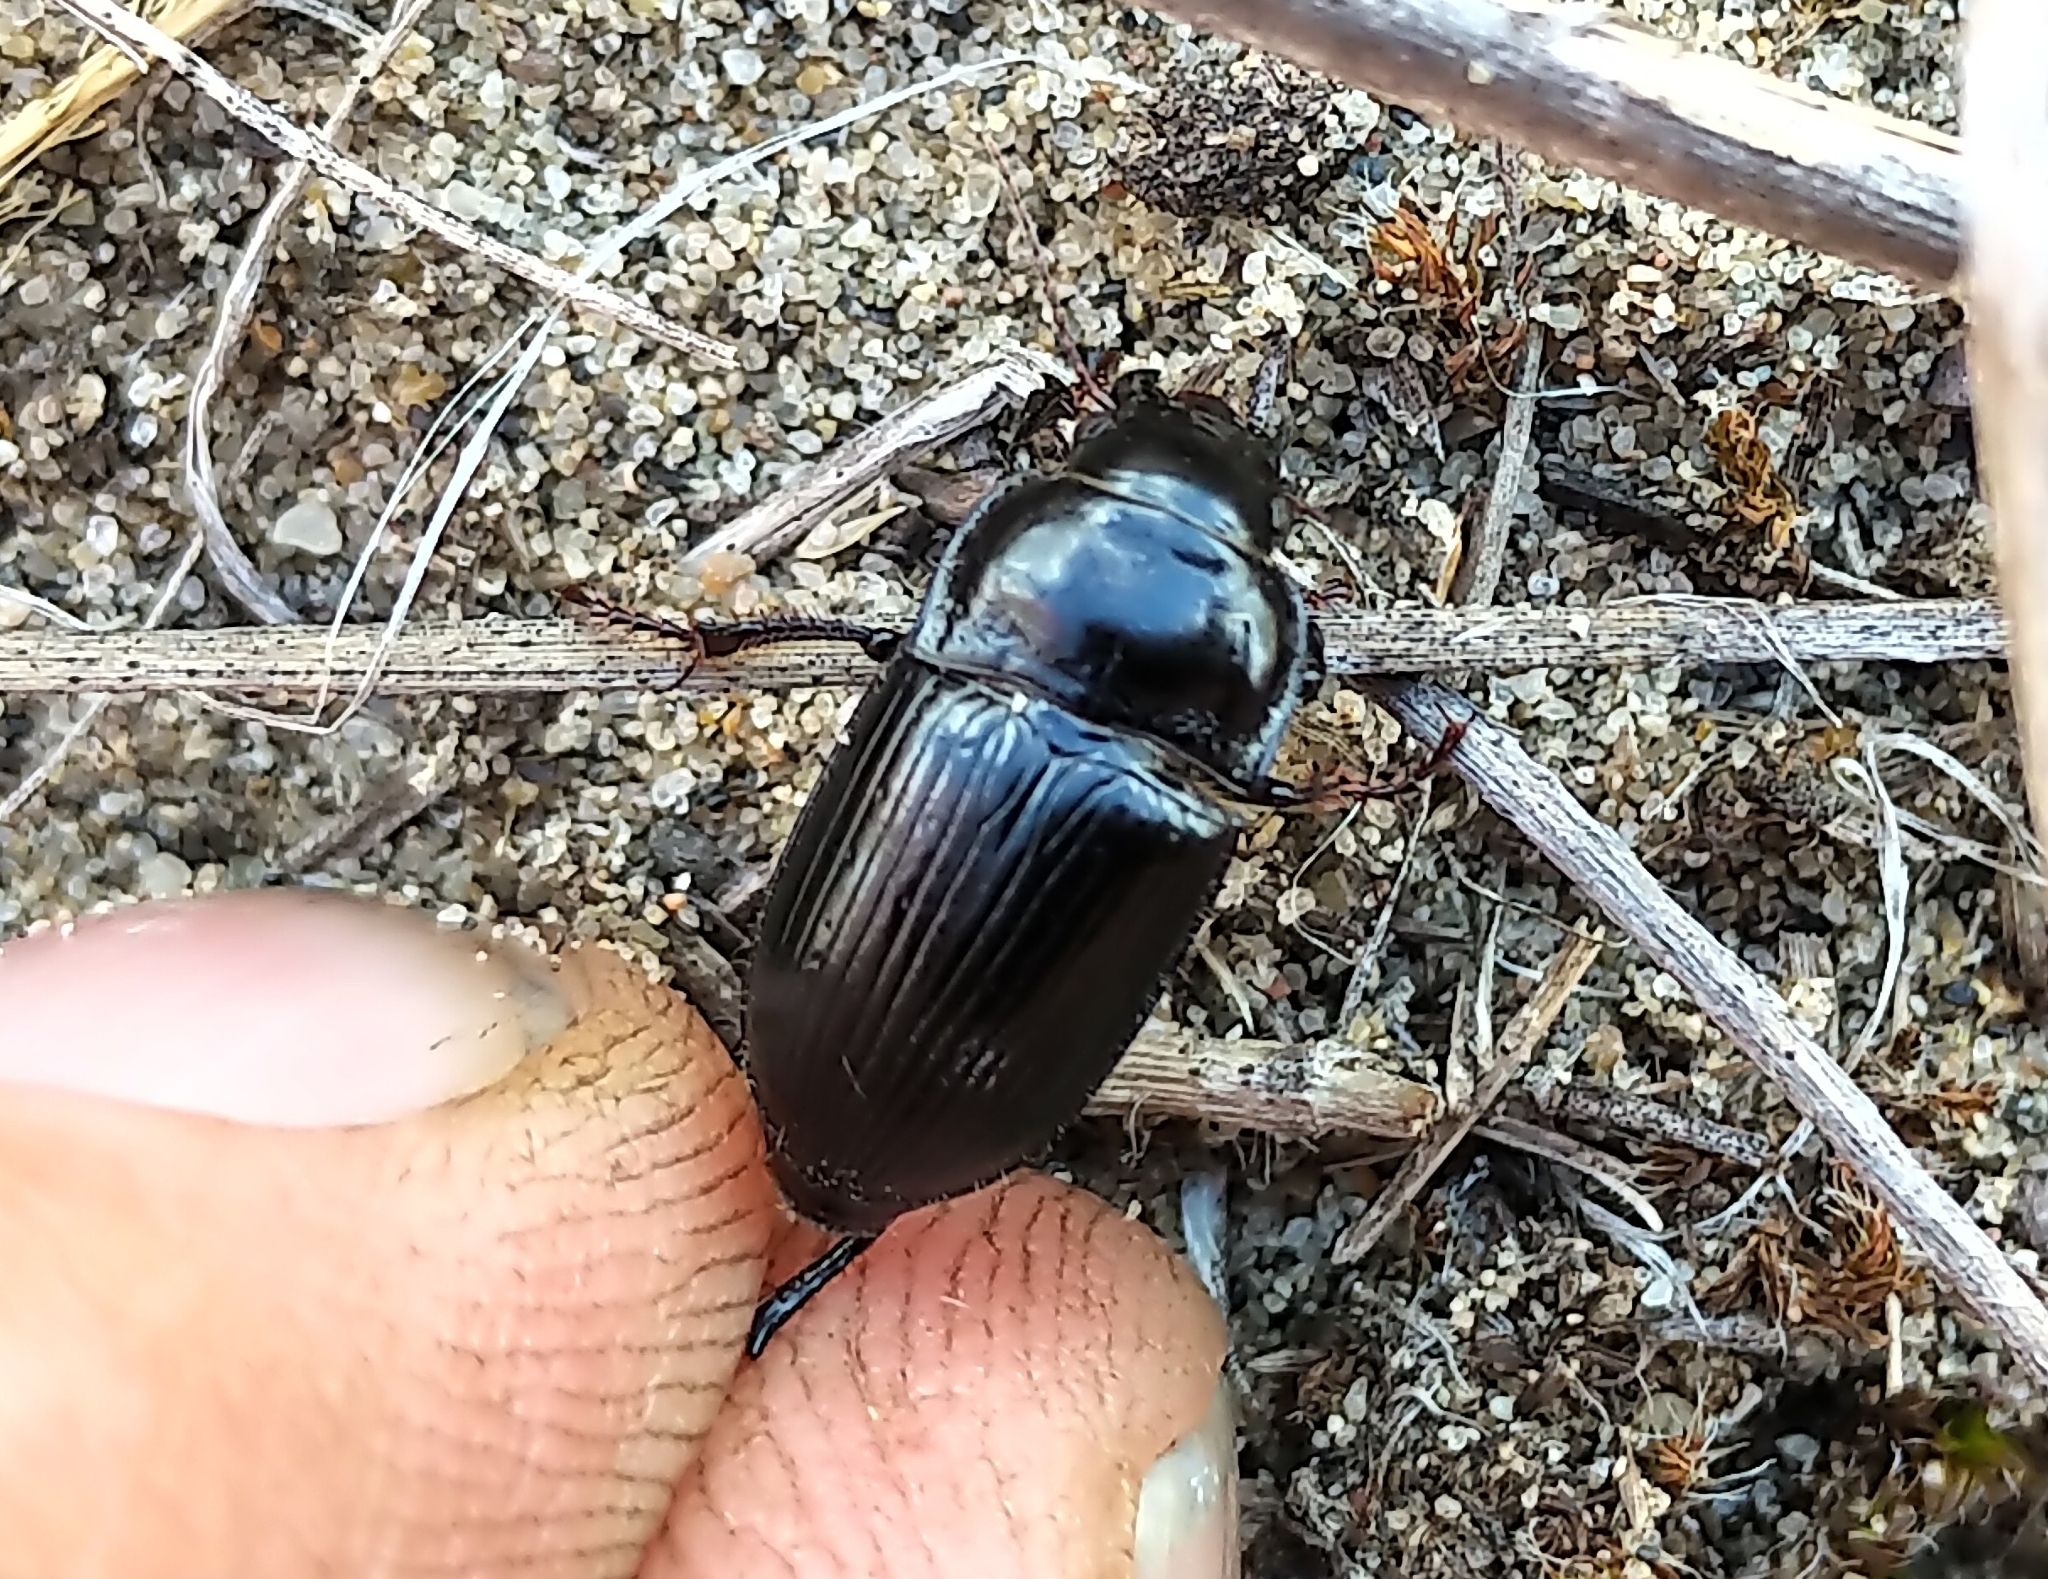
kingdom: Animalia
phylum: Arthropoda
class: Insecta
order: Coleoptera
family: Carabidae
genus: Euryderus
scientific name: Euryderus grossus
